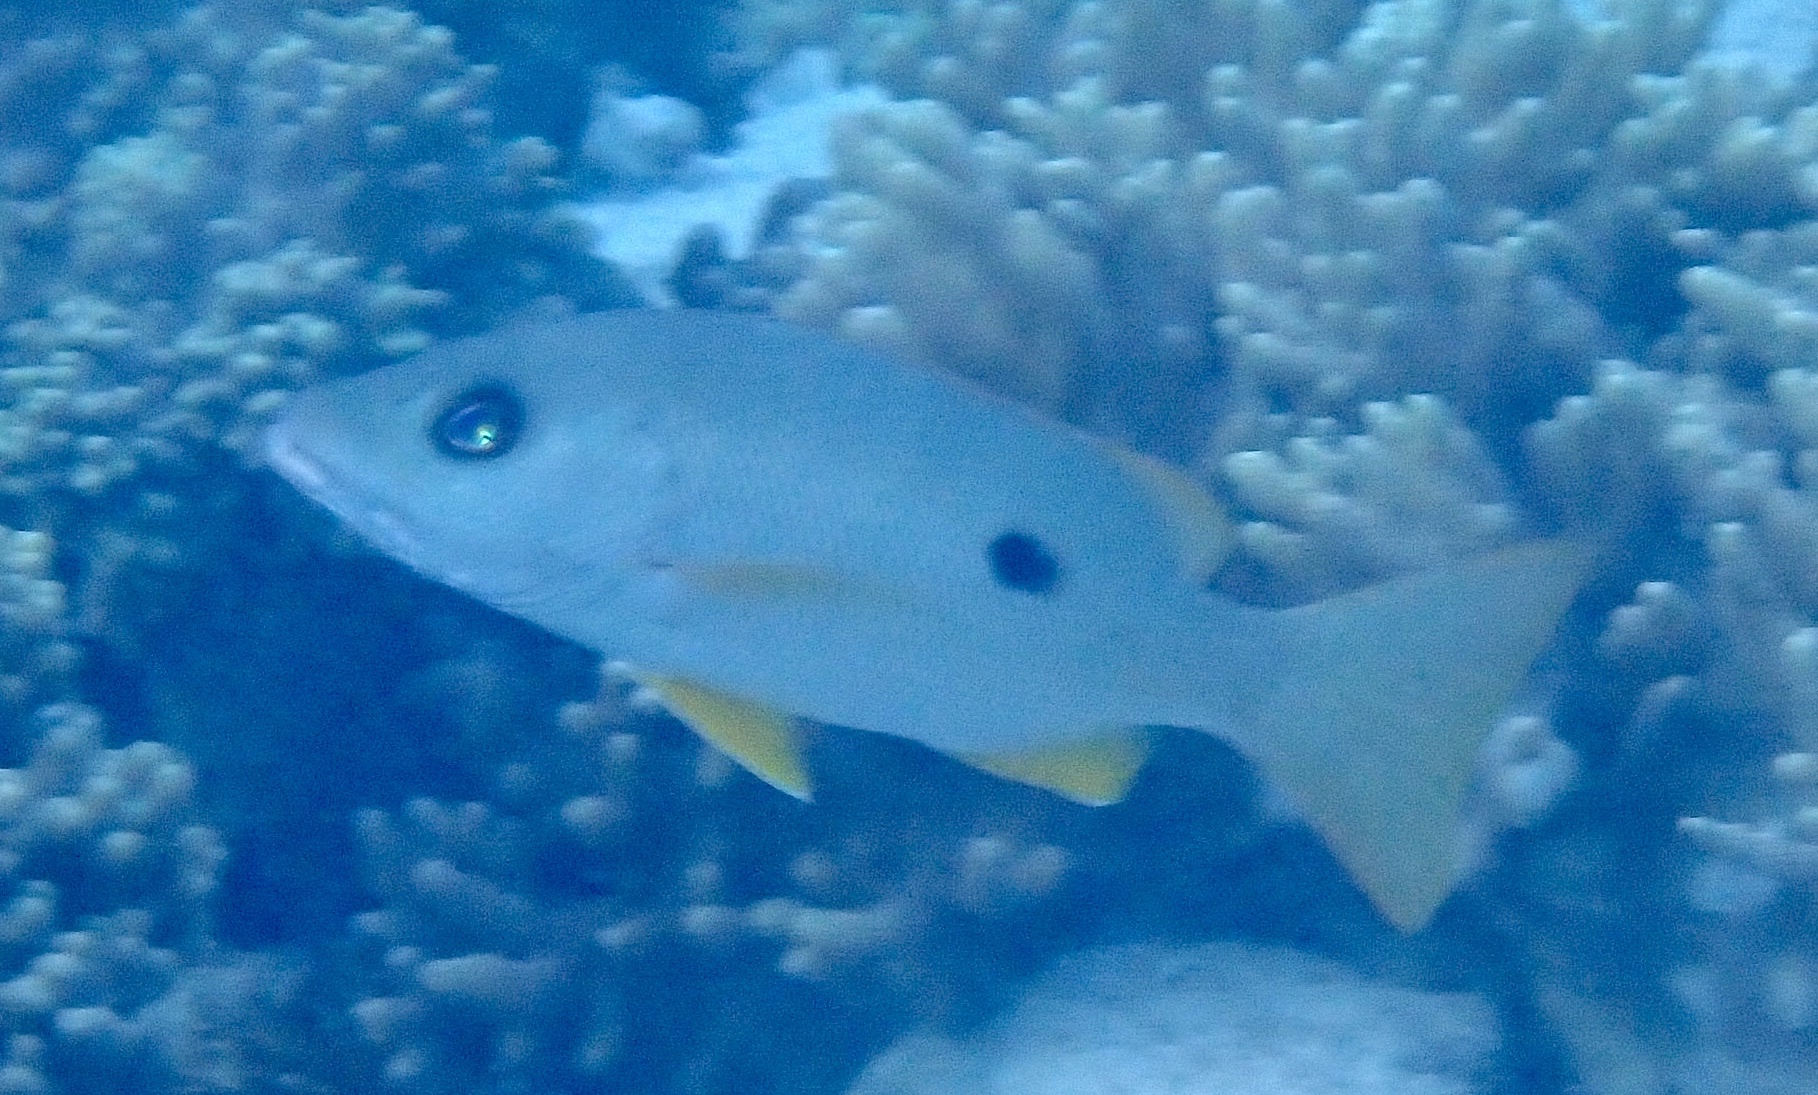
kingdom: Animalia
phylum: Chordata
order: Perciformes
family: Lutjanidae
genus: Lutjanus
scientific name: Lutjanus monostigma
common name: Onespot snapper
